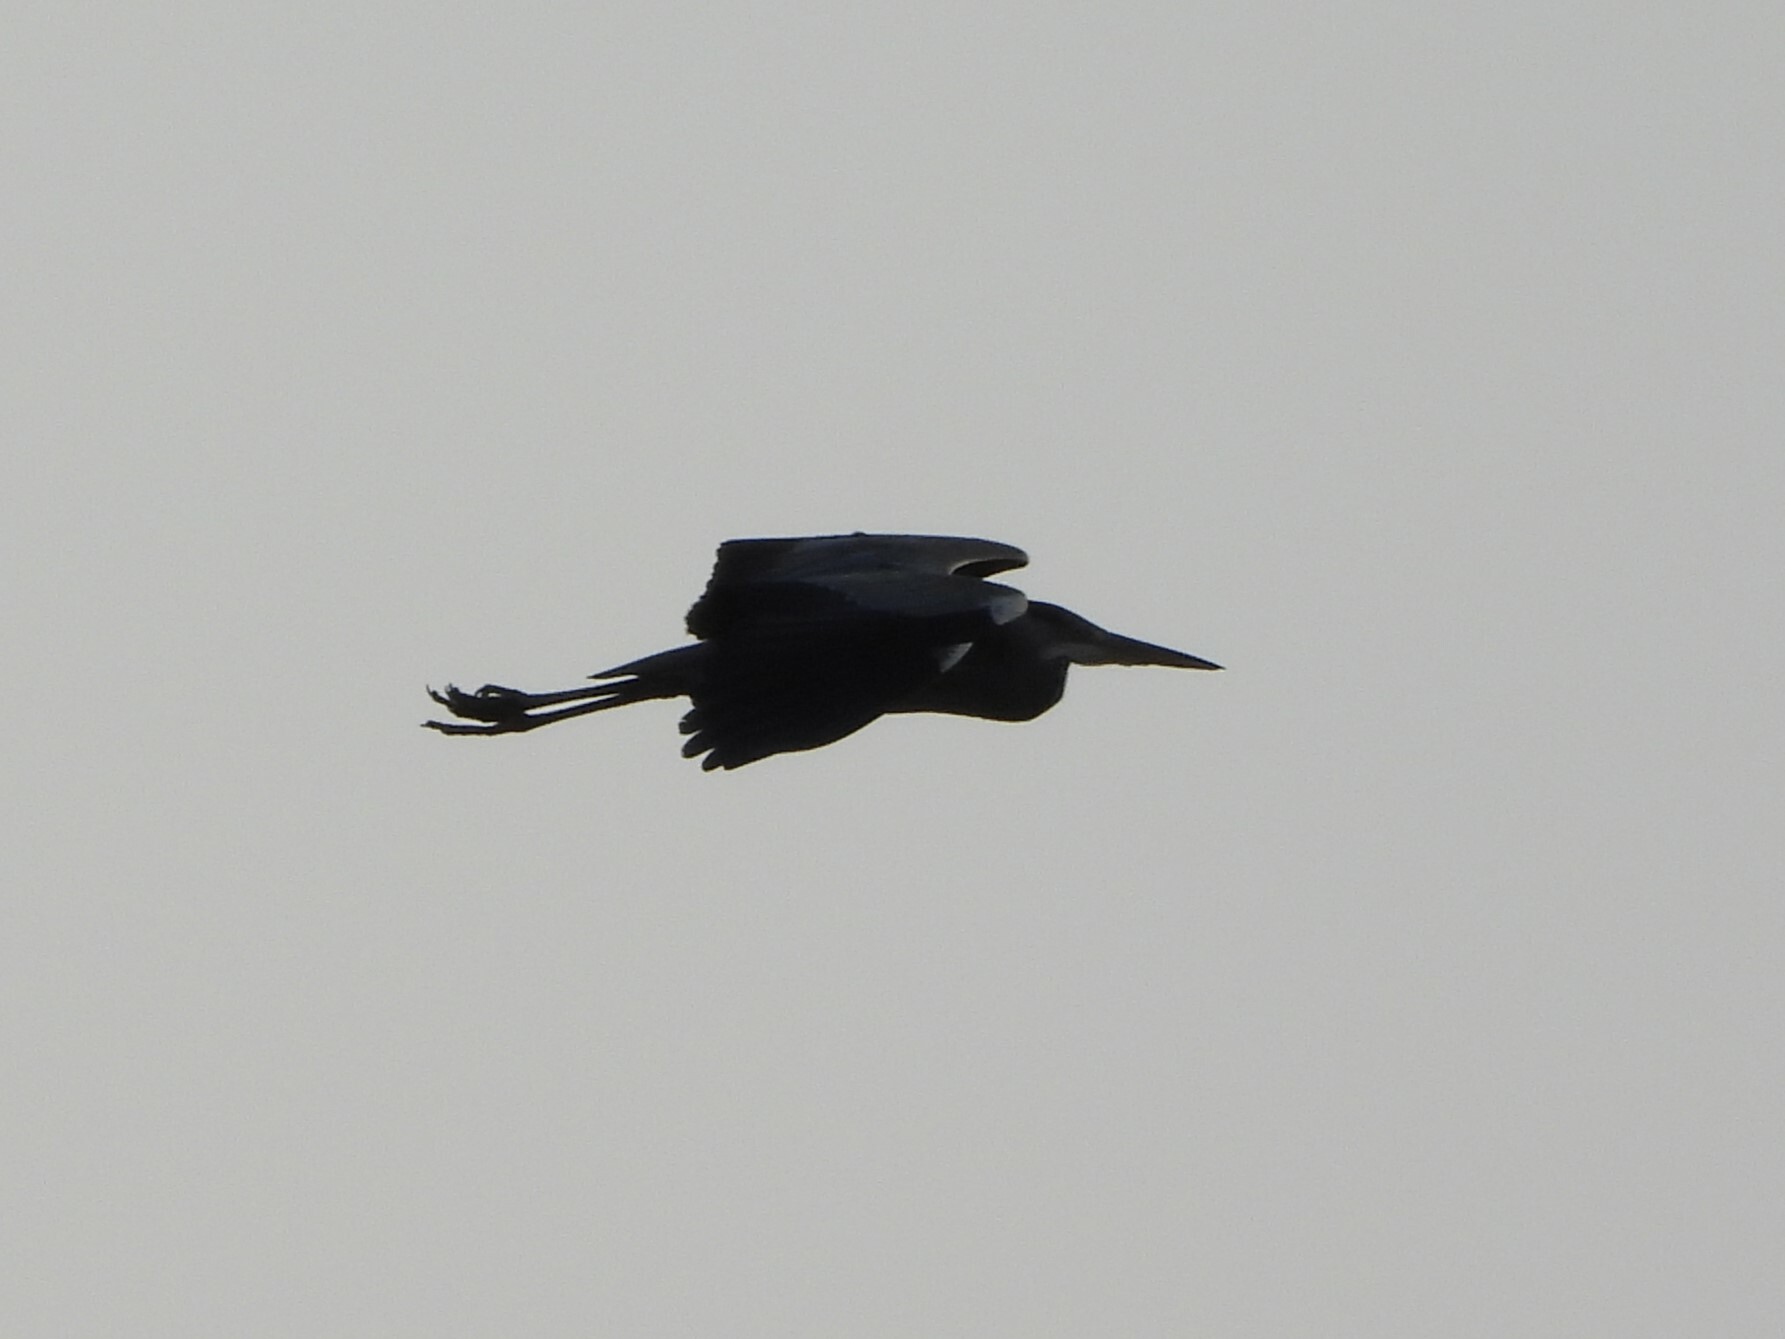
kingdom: Animalia
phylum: Chordata
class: Aves
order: Pelecaniformes
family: Ardeidae
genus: Ardea
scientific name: Ardea cinerea
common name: Grey heron
